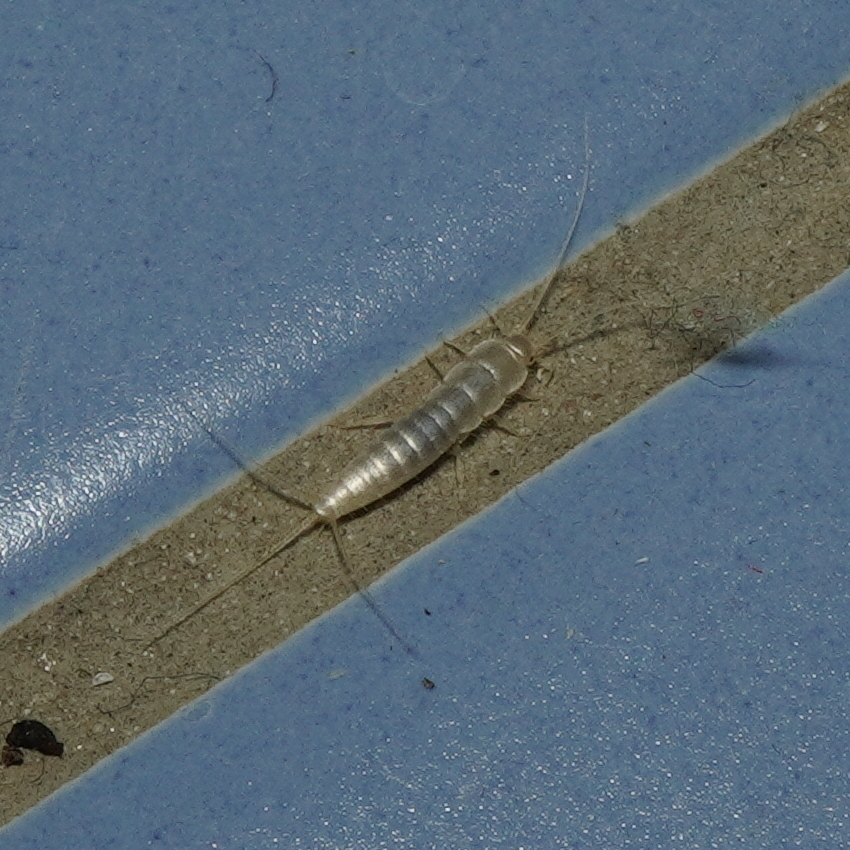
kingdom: Animalia
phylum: Arthropoda
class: Insecta
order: Zygentoma
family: Lepismatidae
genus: Ctenolepisma
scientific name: Ctenolepisma calvum
